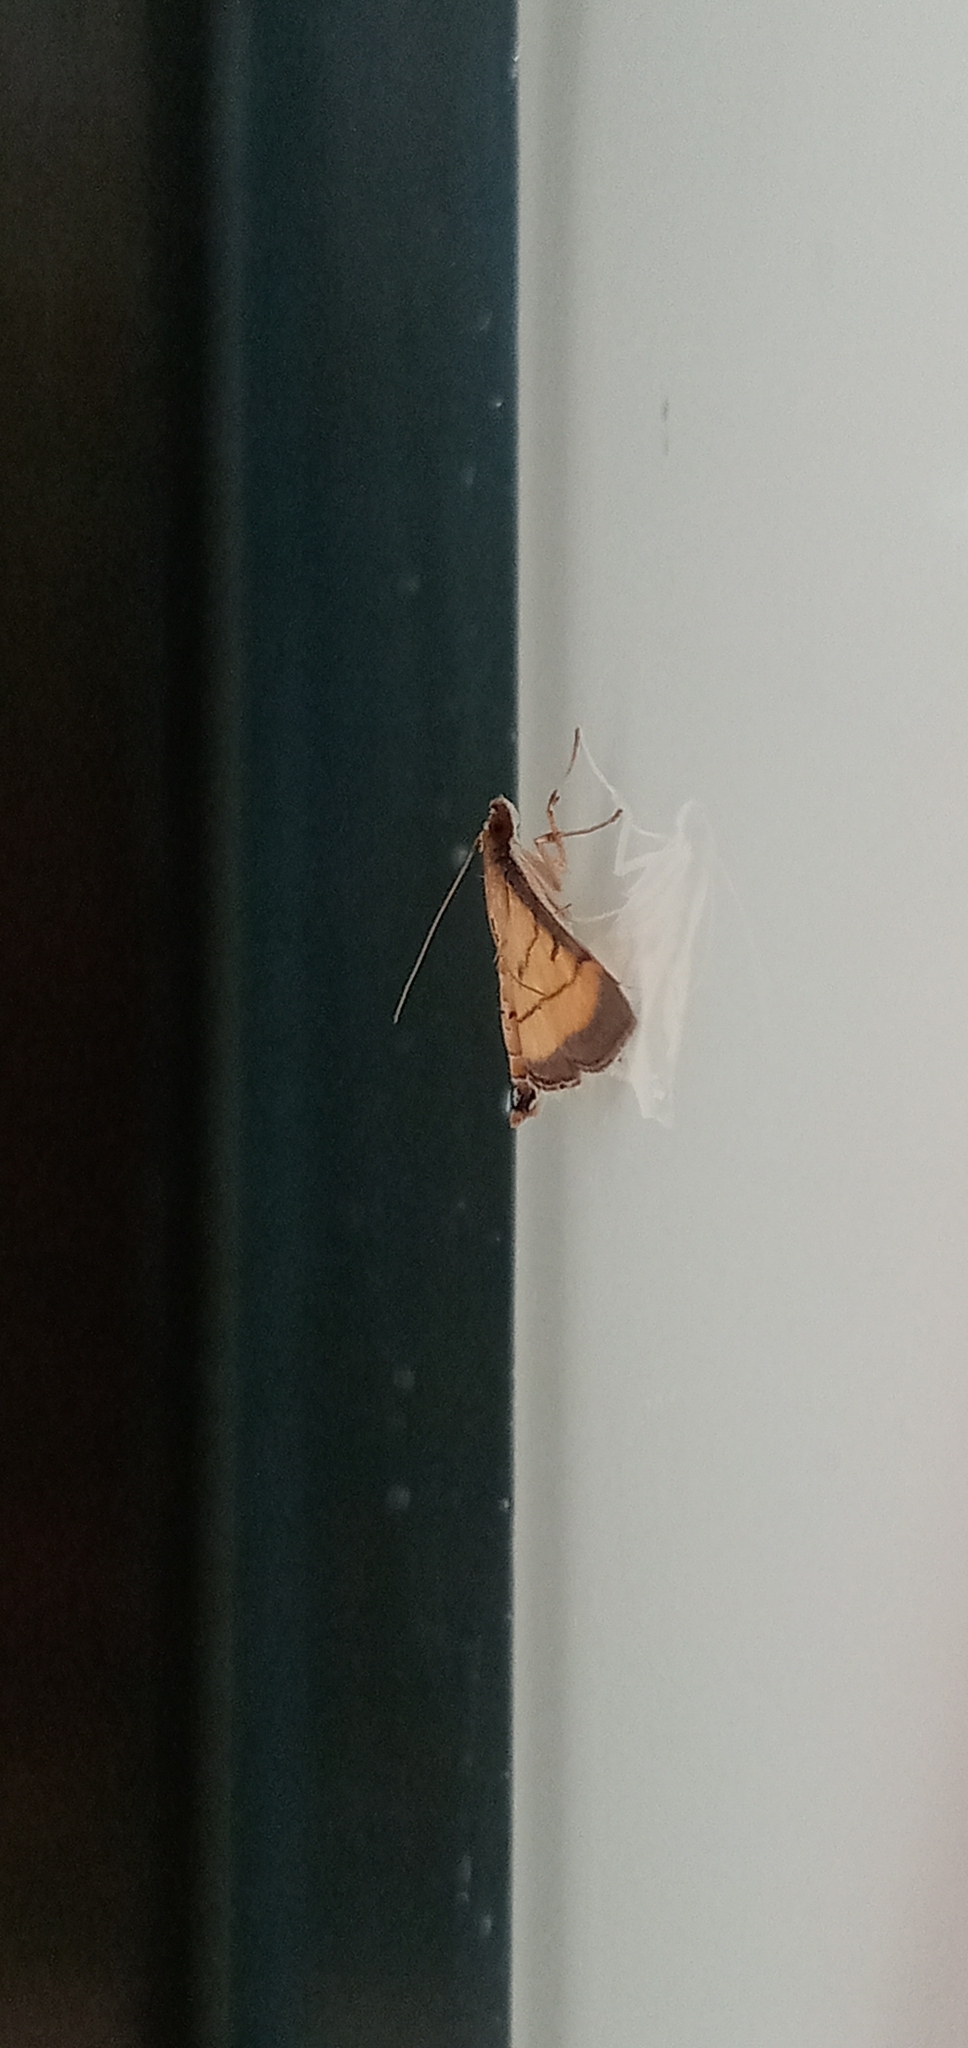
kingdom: Animalia
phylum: Arthropoda
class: Insecta
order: Lepidoptera
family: Crambidae
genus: Cnaphalocrocis
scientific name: Cnaphalocrocis medinalis
